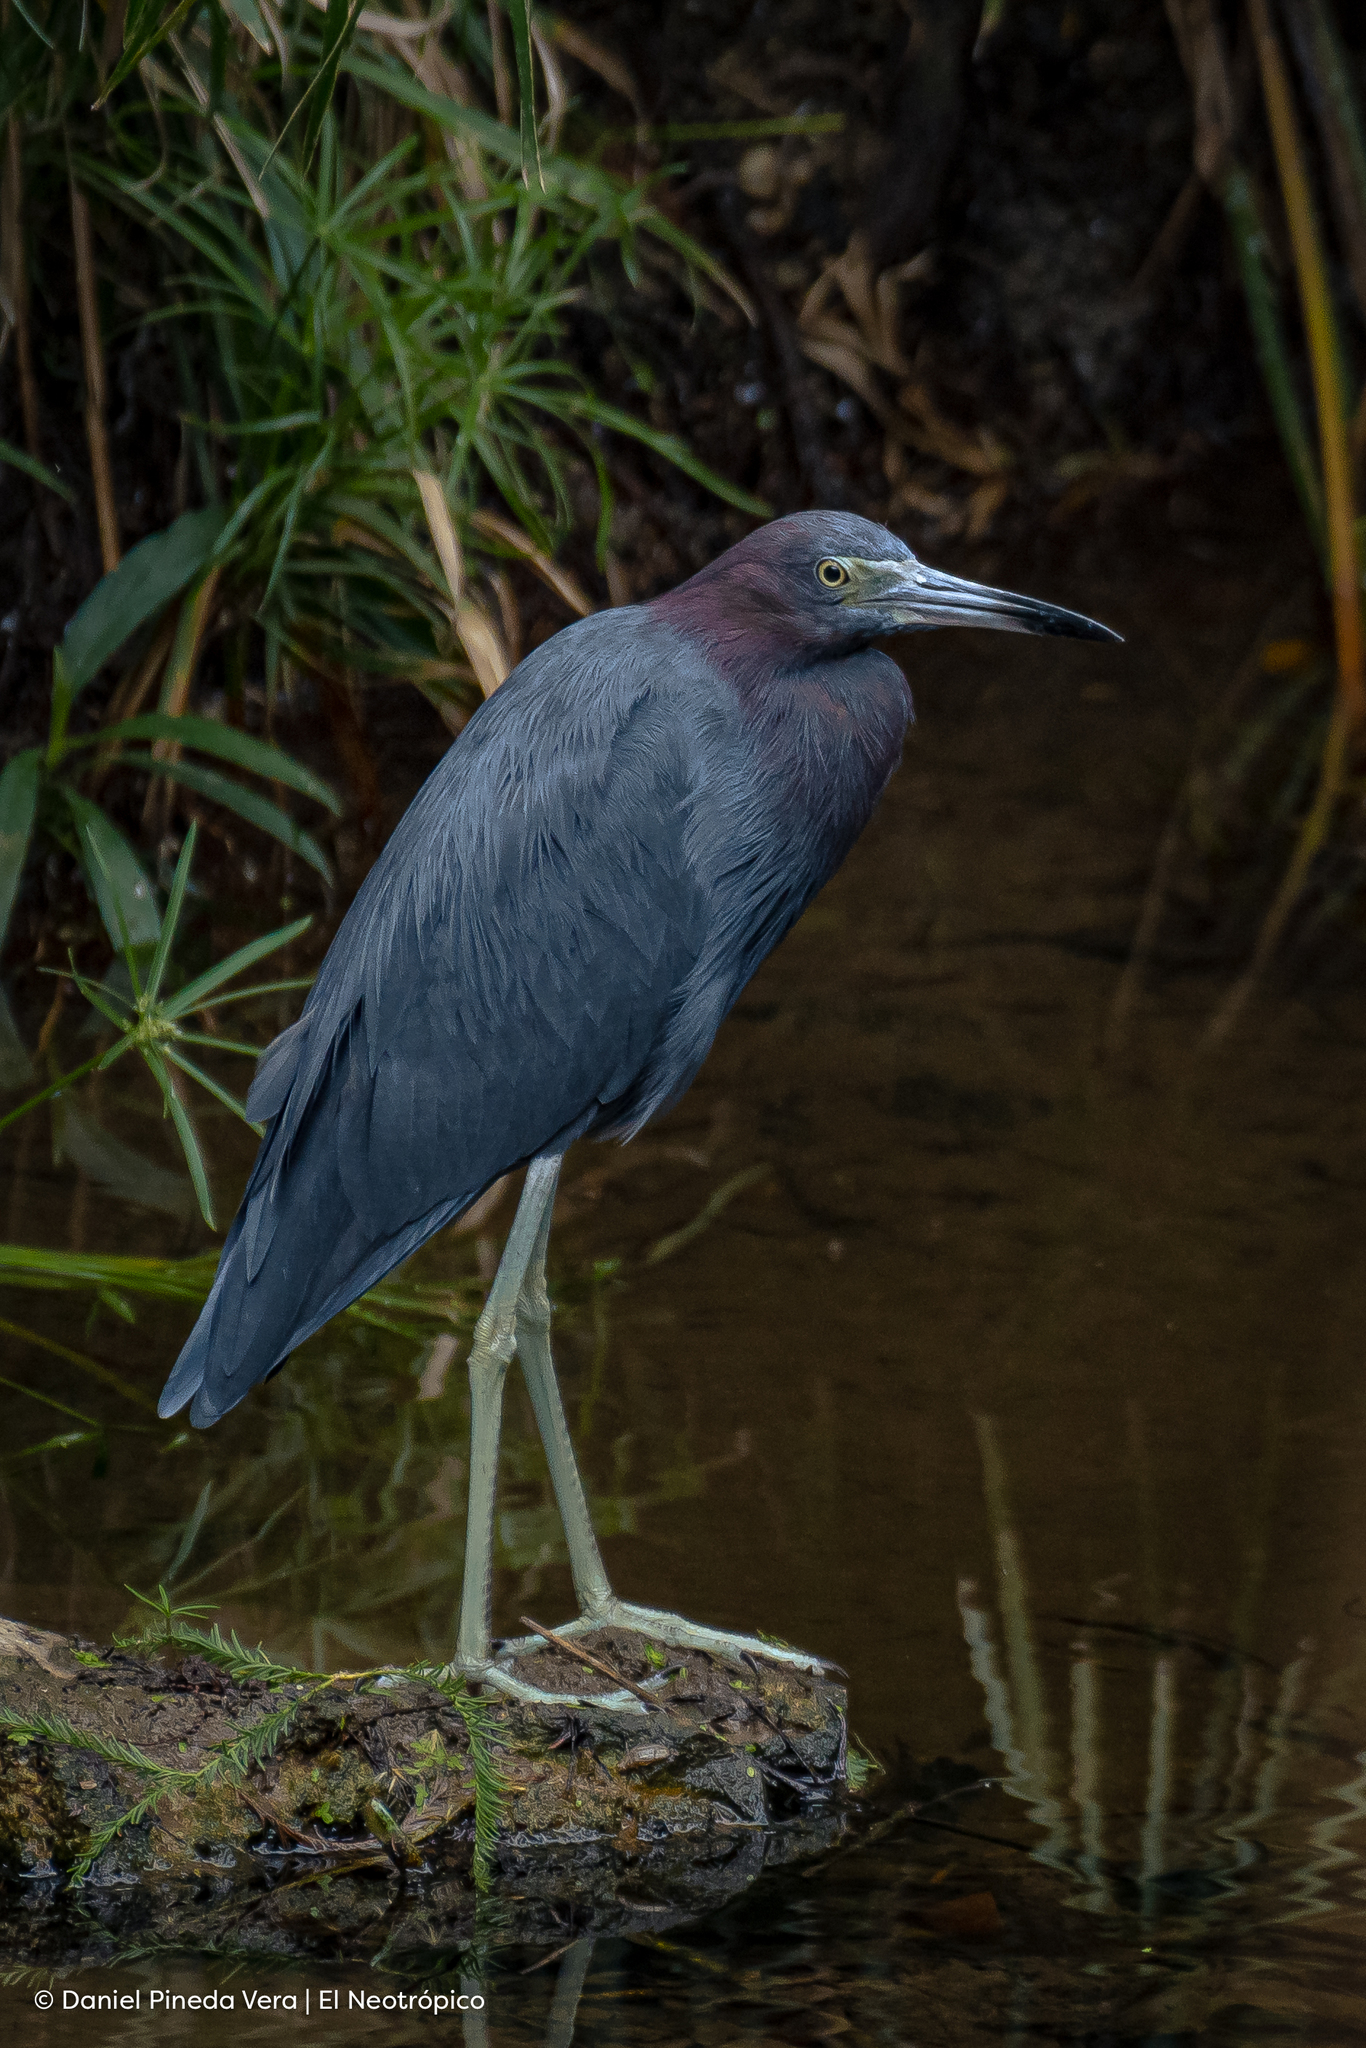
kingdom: Animalia
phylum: Chordata
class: Aves
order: Pelecaniformes
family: Ardeidae
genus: Egretta
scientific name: Egretta caerulea
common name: Little blue heron
